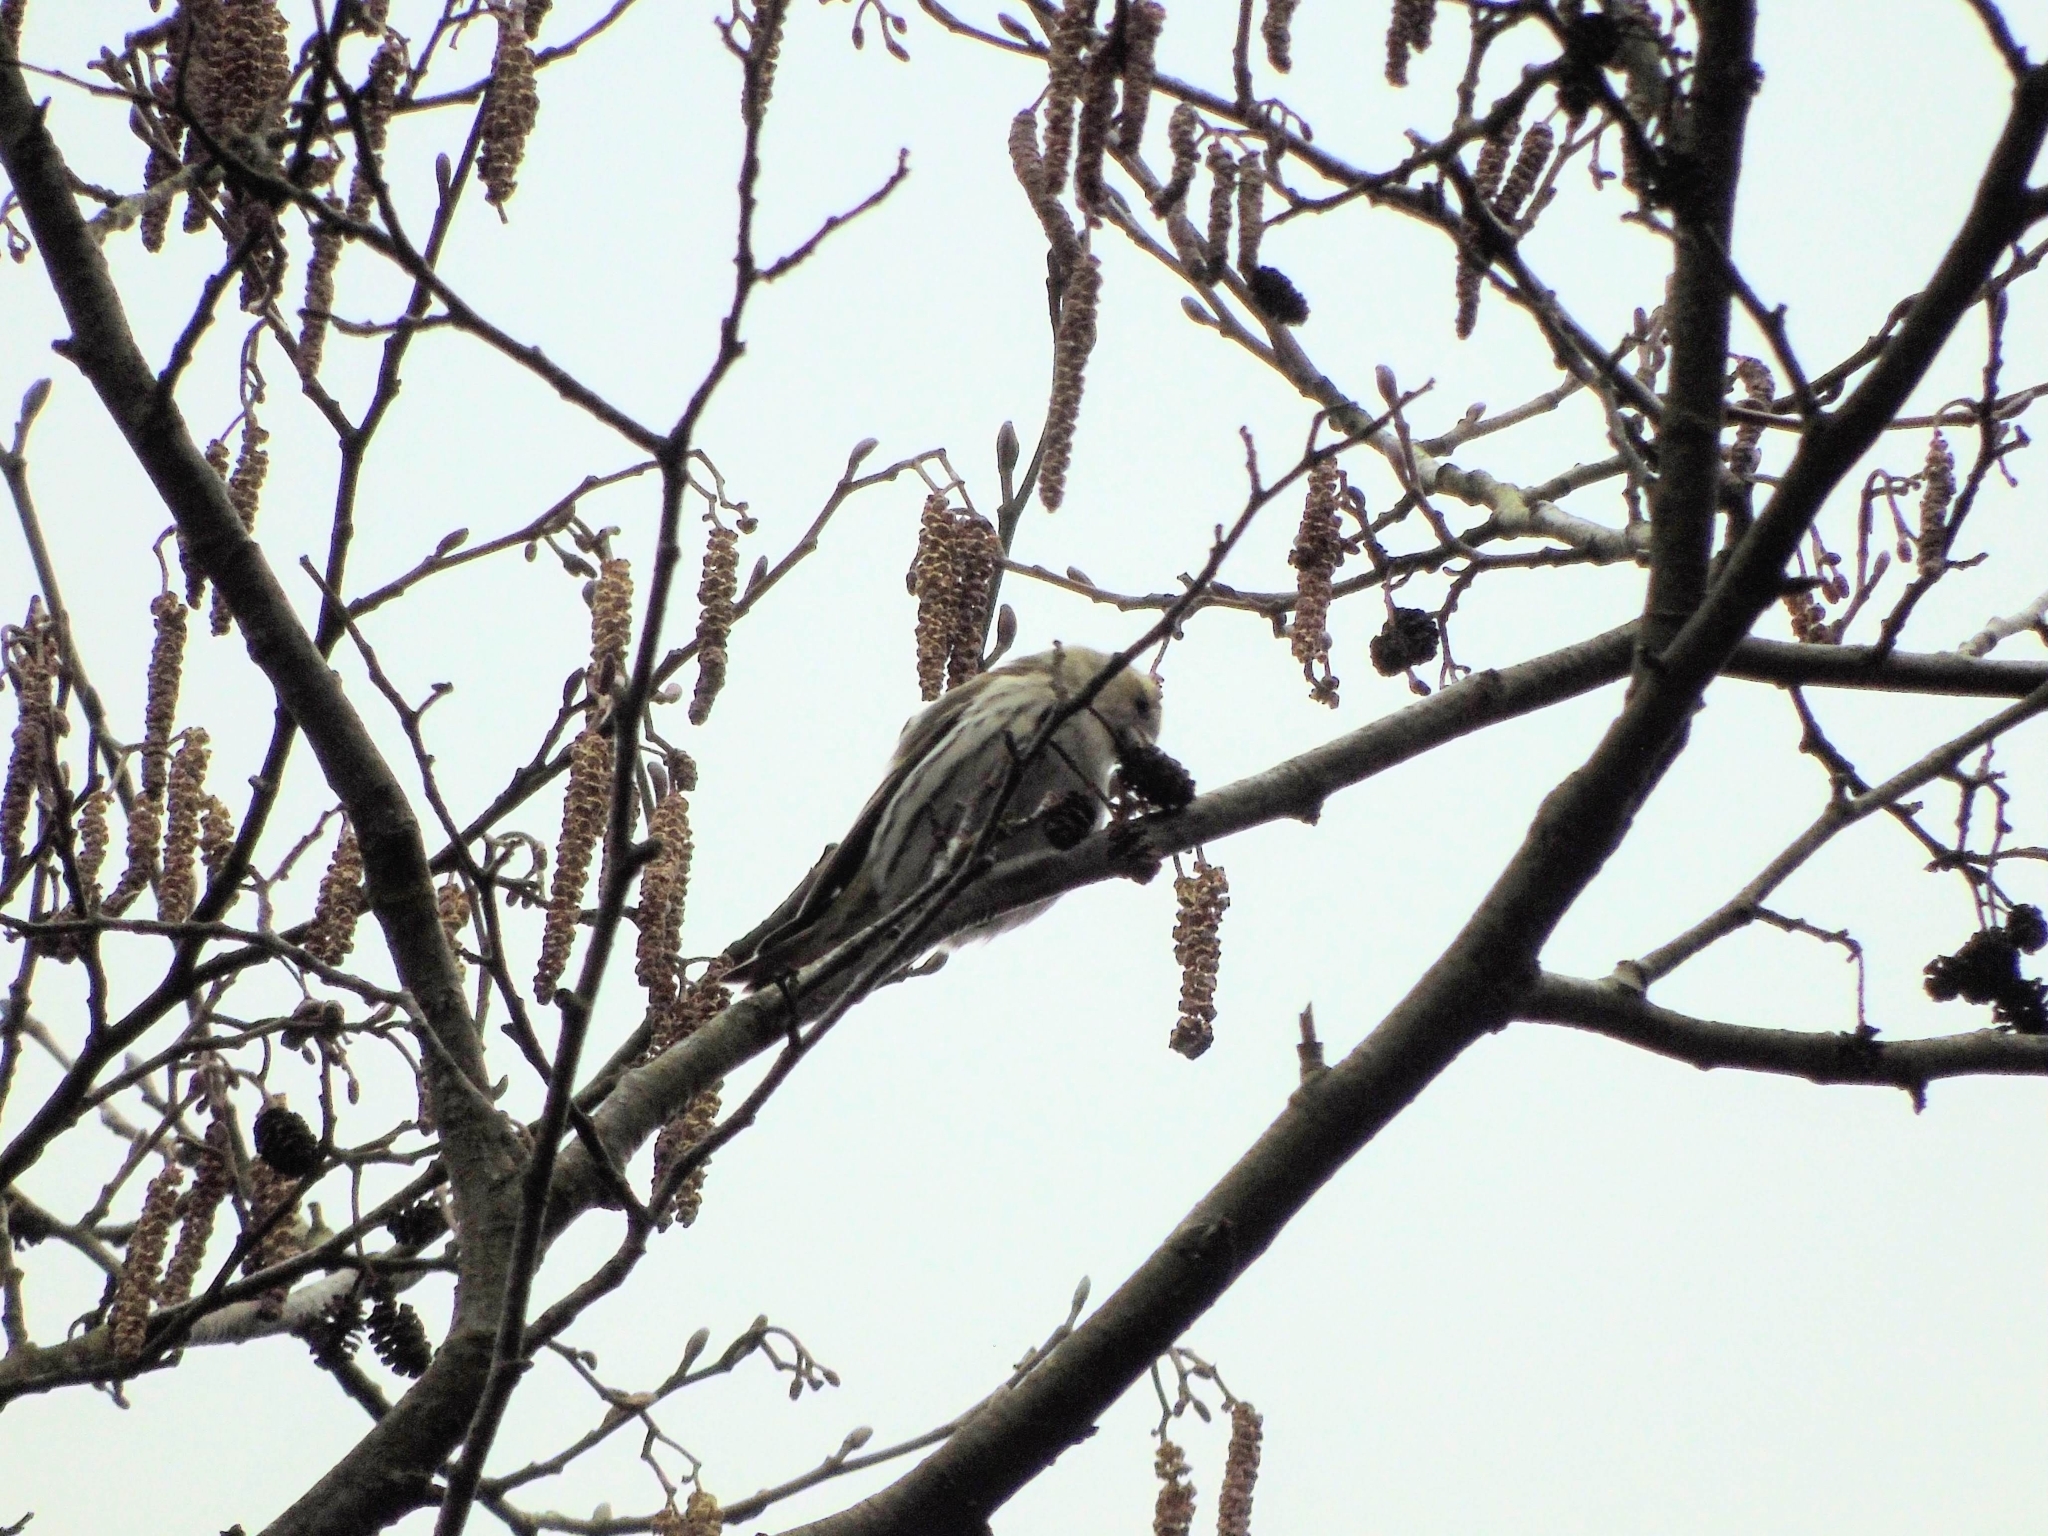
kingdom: Animalia
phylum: Chordata
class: Aves
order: Passeriformes
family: Fringillidae
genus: Spinus
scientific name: Spinus spinus
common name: Eurasian siskin
